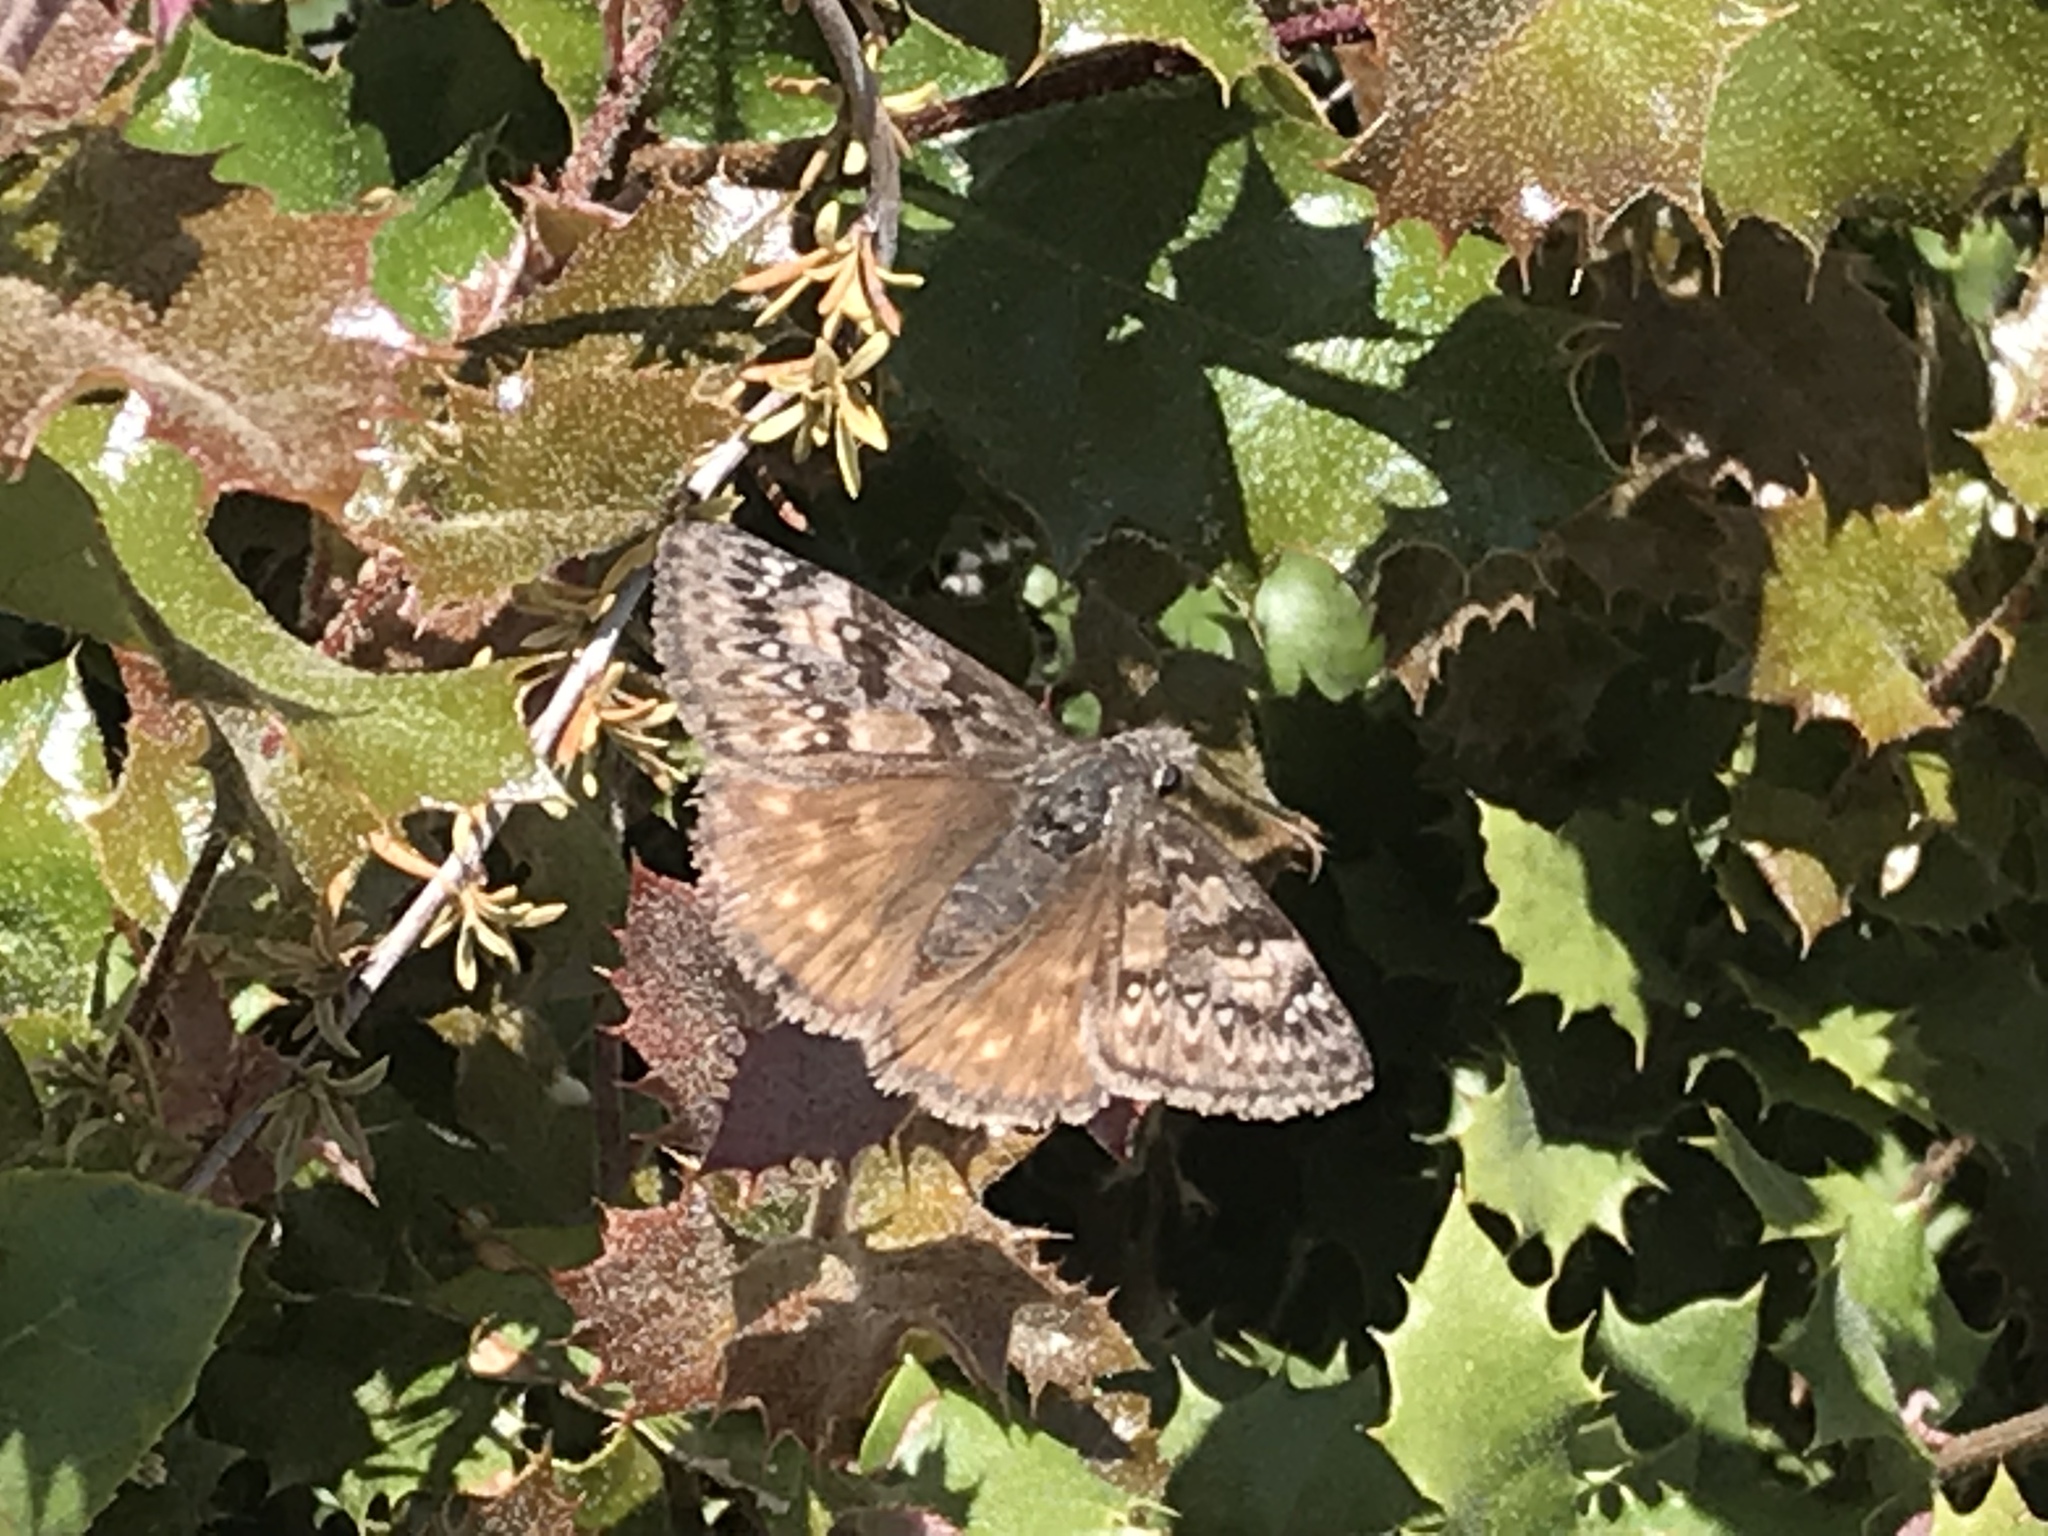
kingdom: Animalia
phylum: Arthropoda
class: Insecta
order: Lepidoptera
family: Hesperiidae
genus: Erynnis
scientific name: Erynnis propertius
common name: Propertius duskywing
